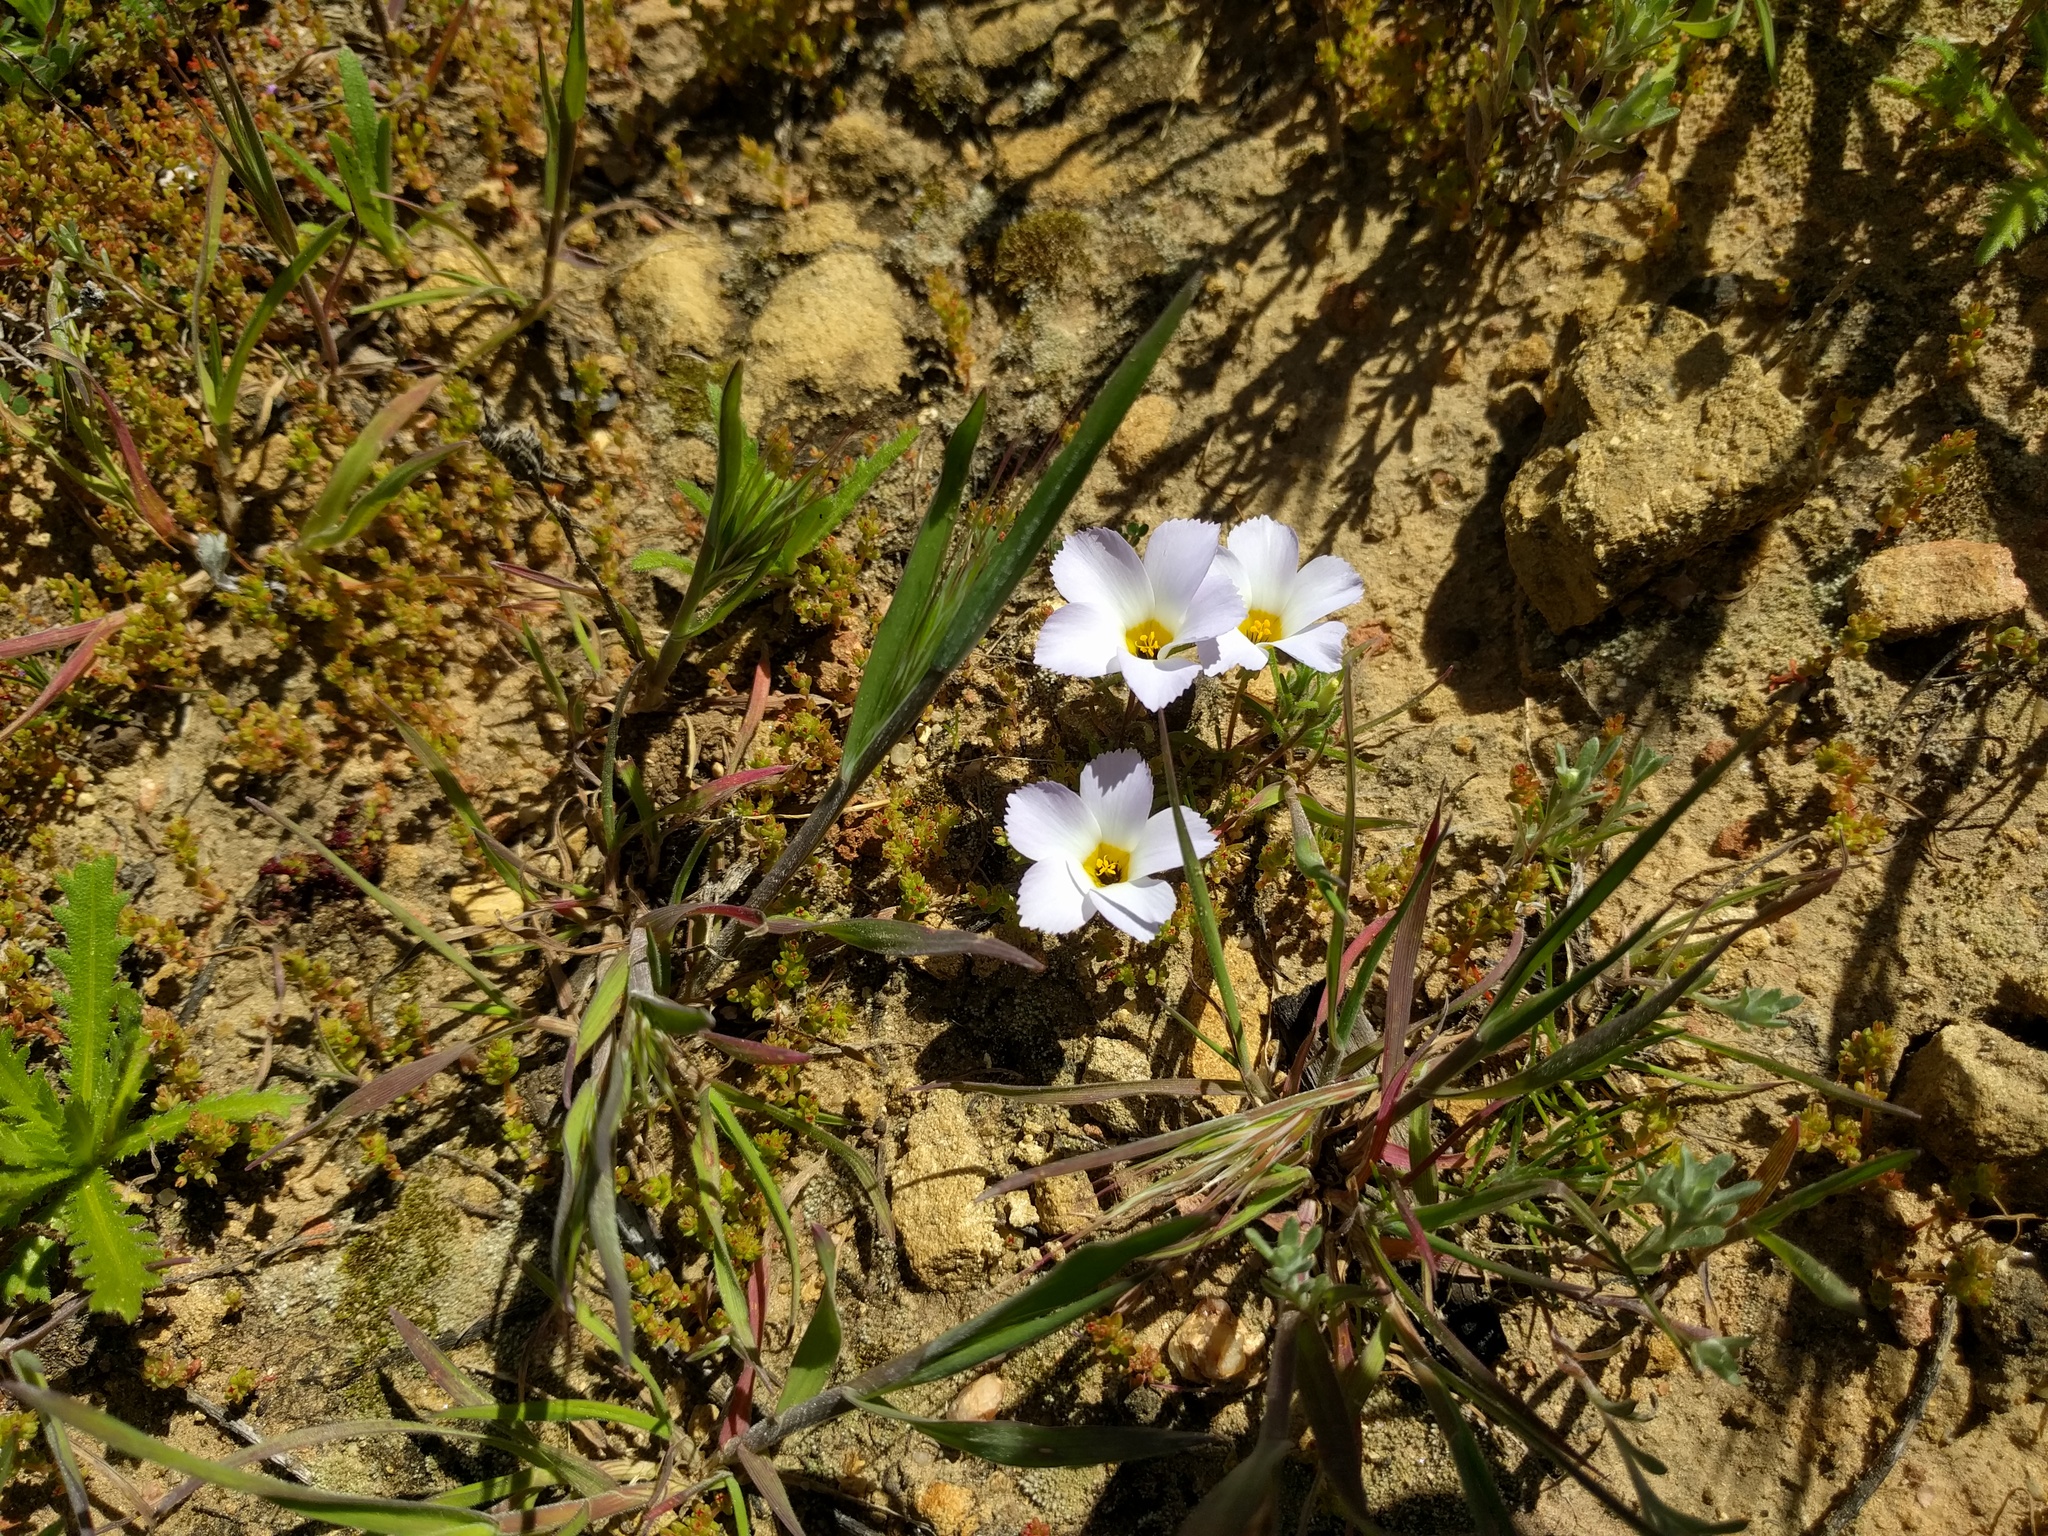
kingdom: Plantae
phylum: Tracheophyta
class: Magnoliopsida
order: Ericales
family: Polemoniaceae
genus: Linanthus
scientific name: Linanthus dianthiflorus
